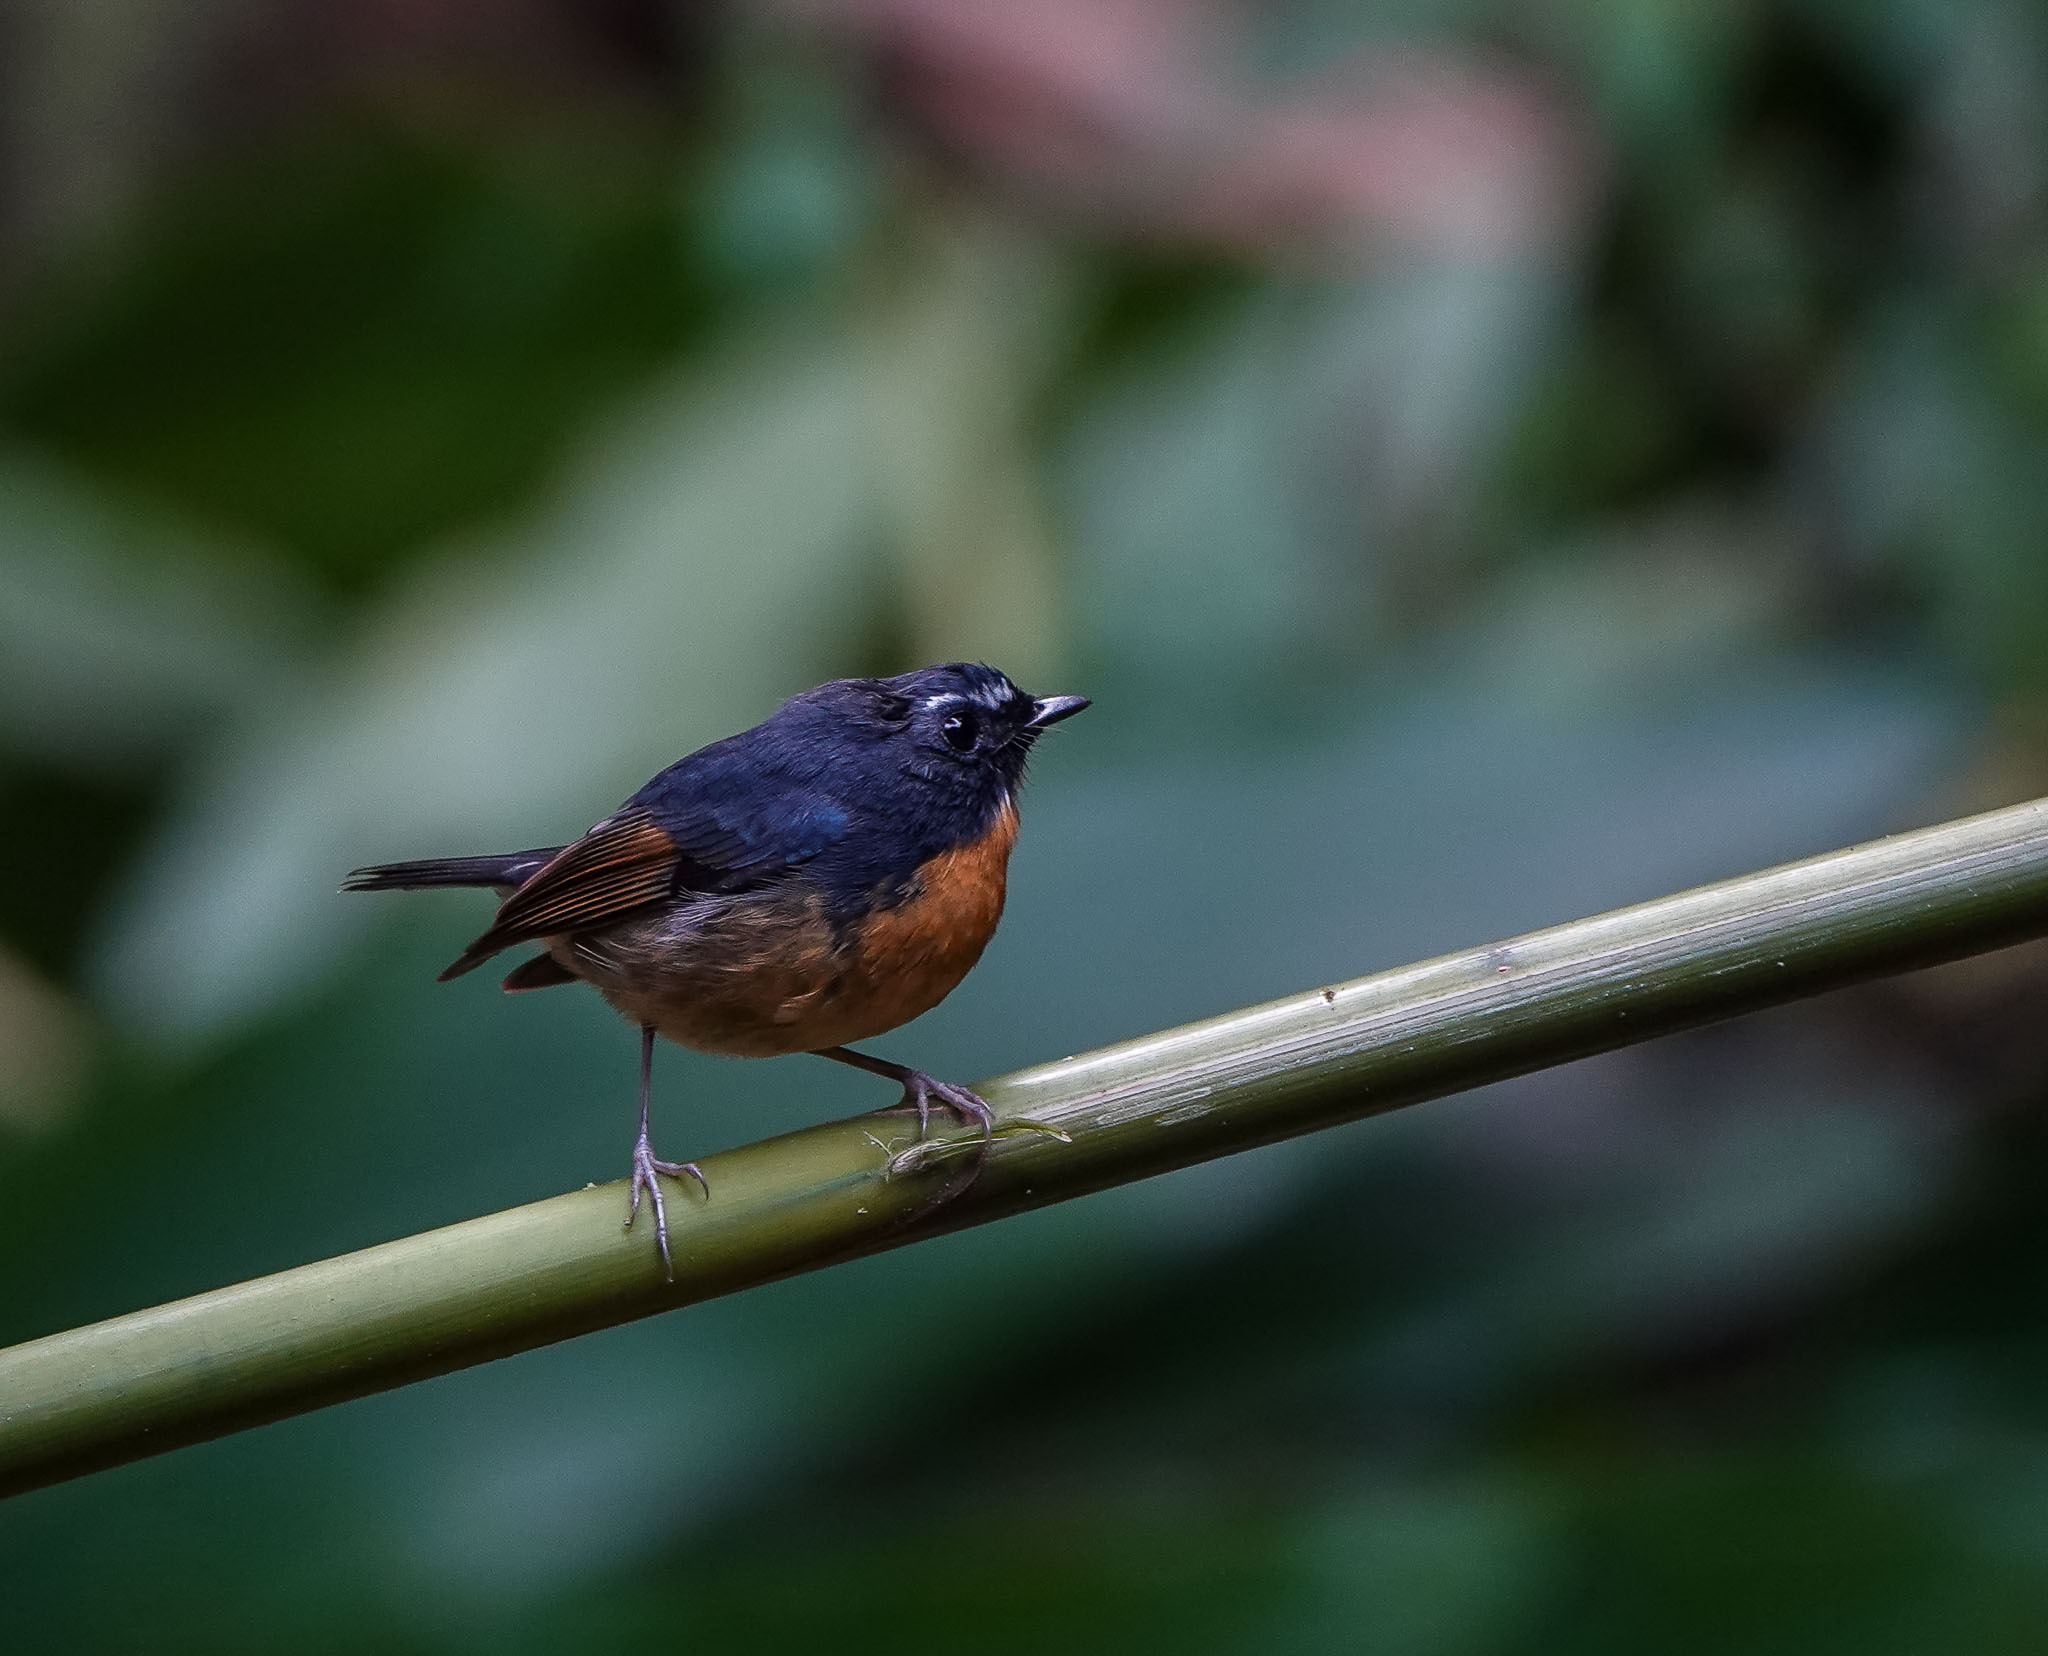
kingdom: Animalia
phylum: Chordata
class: Aves
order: Passeriformes
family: Muscicapidae
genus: Ficedula
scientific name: Ficedula hyperythra
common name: Snowy-browed flycatcher
